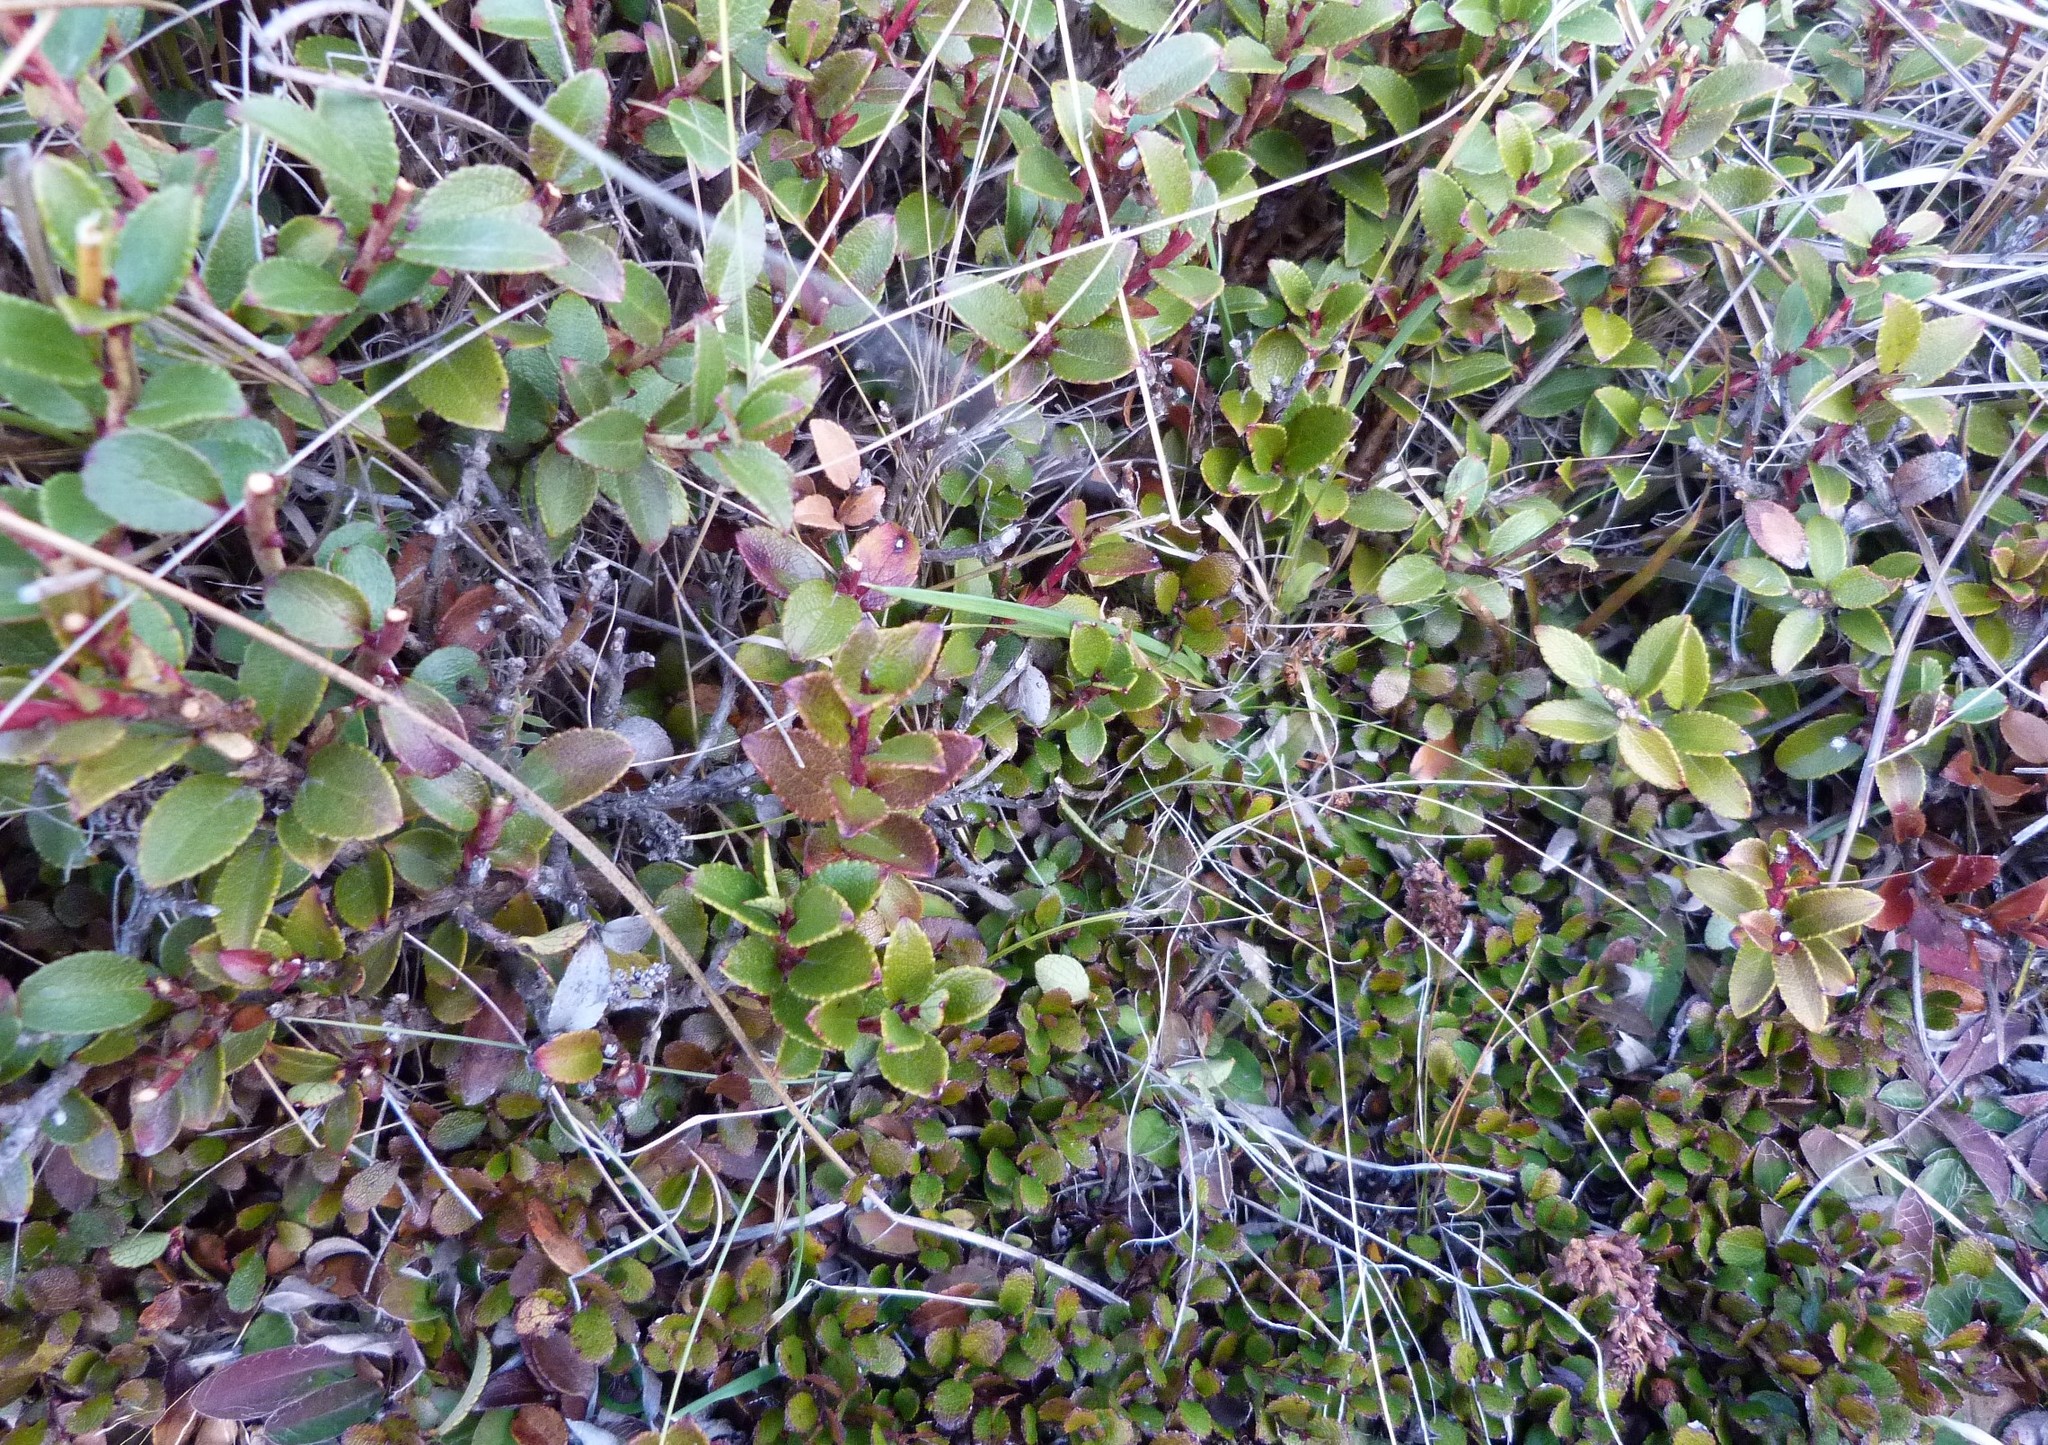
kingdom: Plantae
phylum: Tracheophyta
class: Magnoliopsida
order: Ericales
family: Ericaceae
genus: Gaultheria
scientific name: Gaultheria crassa
